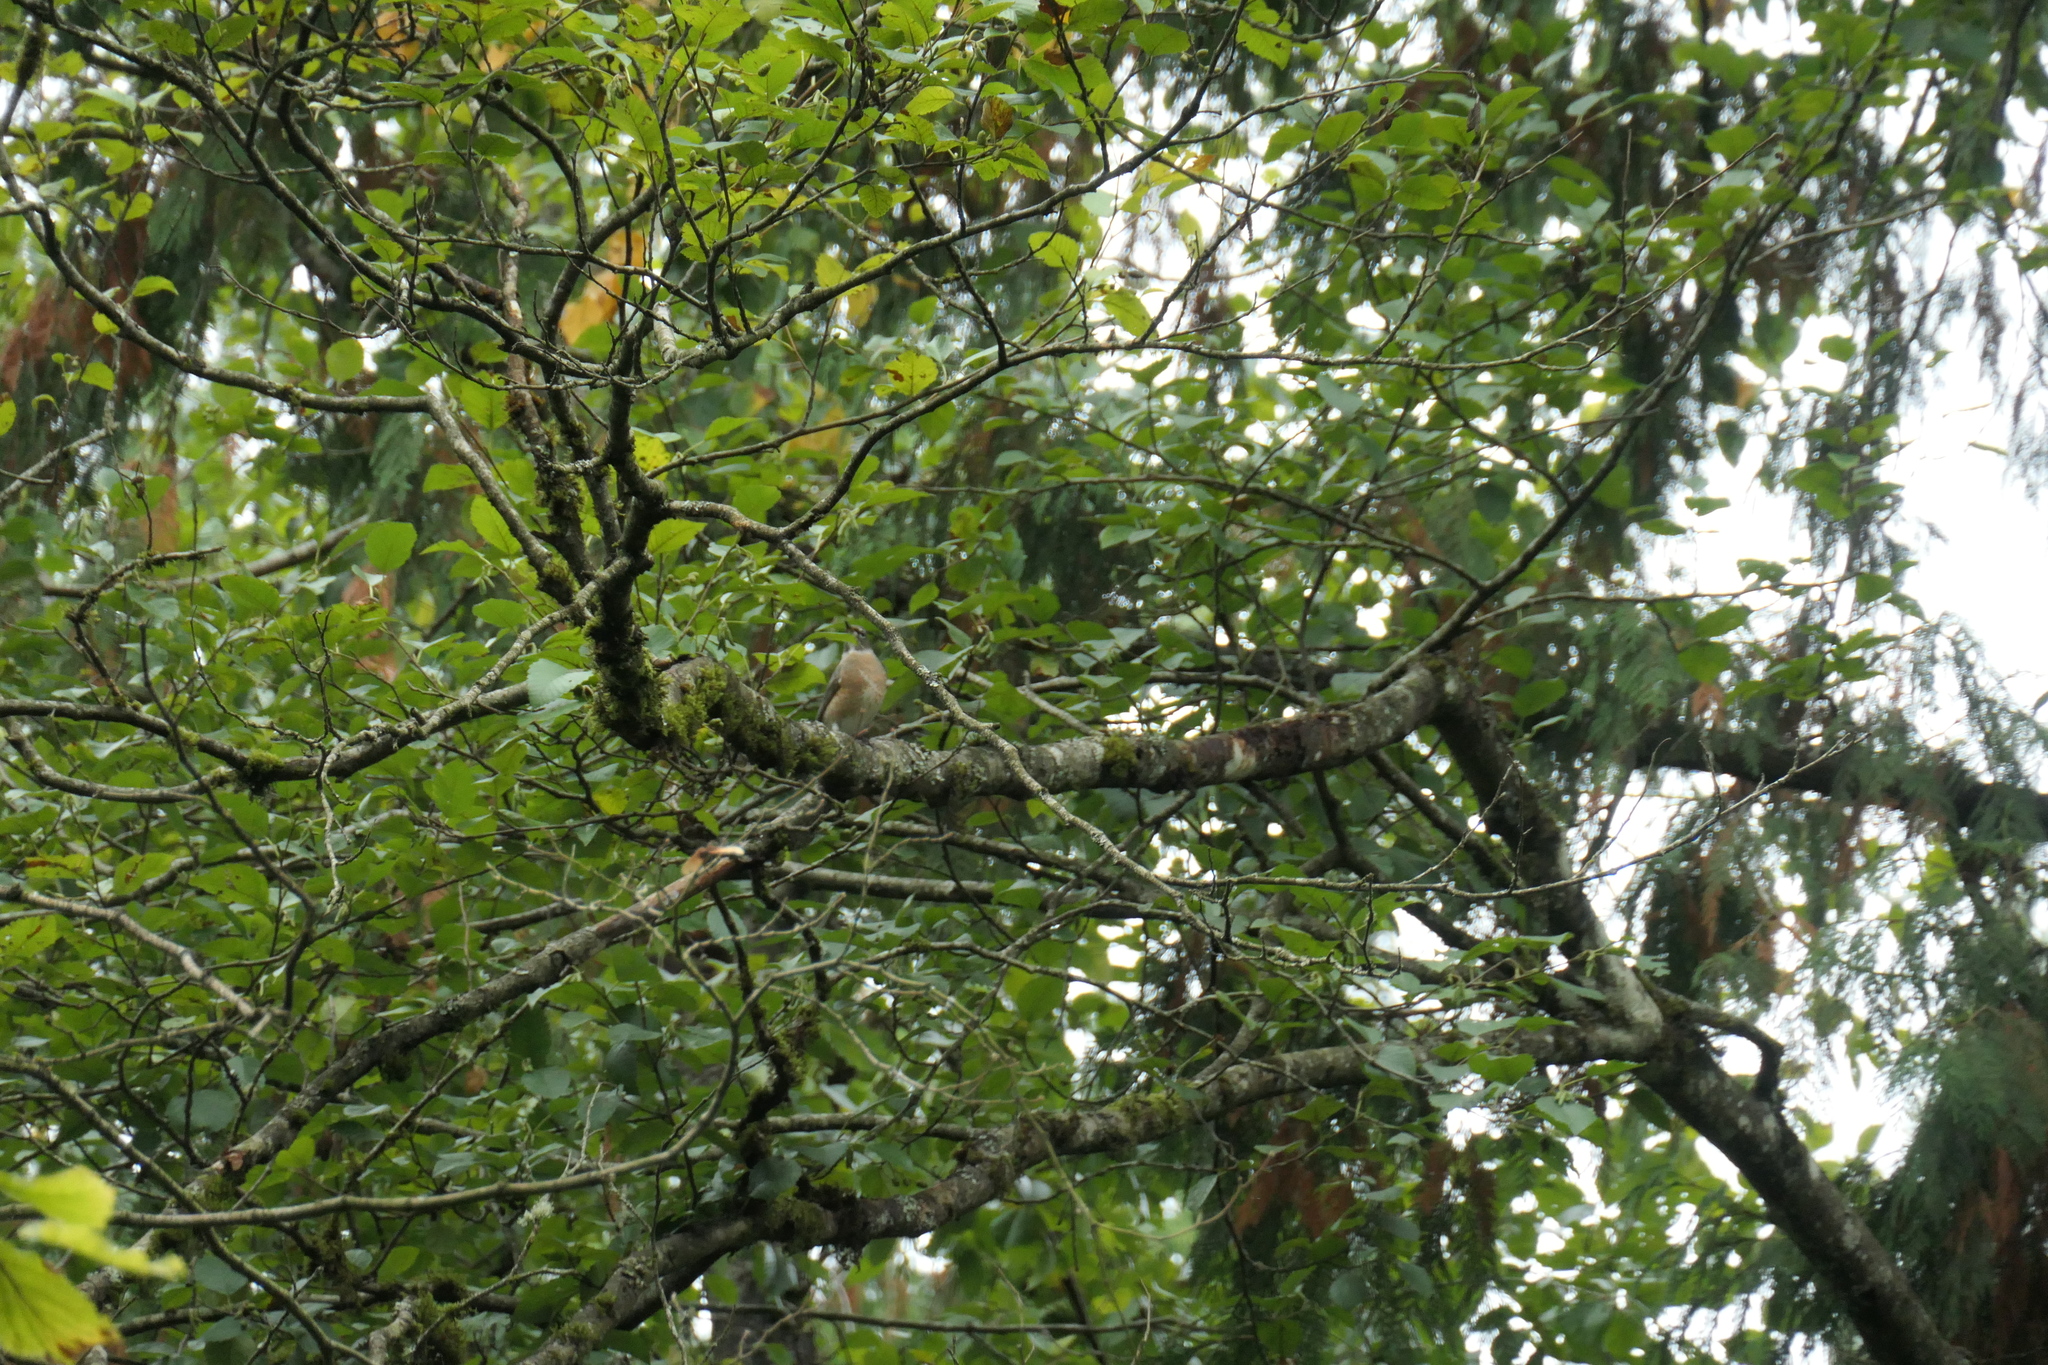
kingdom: Animalia
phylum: Chordata
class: Aves
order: Passeriformes
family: Turdidae
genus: Turdus
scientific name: Turdus migratorius
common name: American robin
